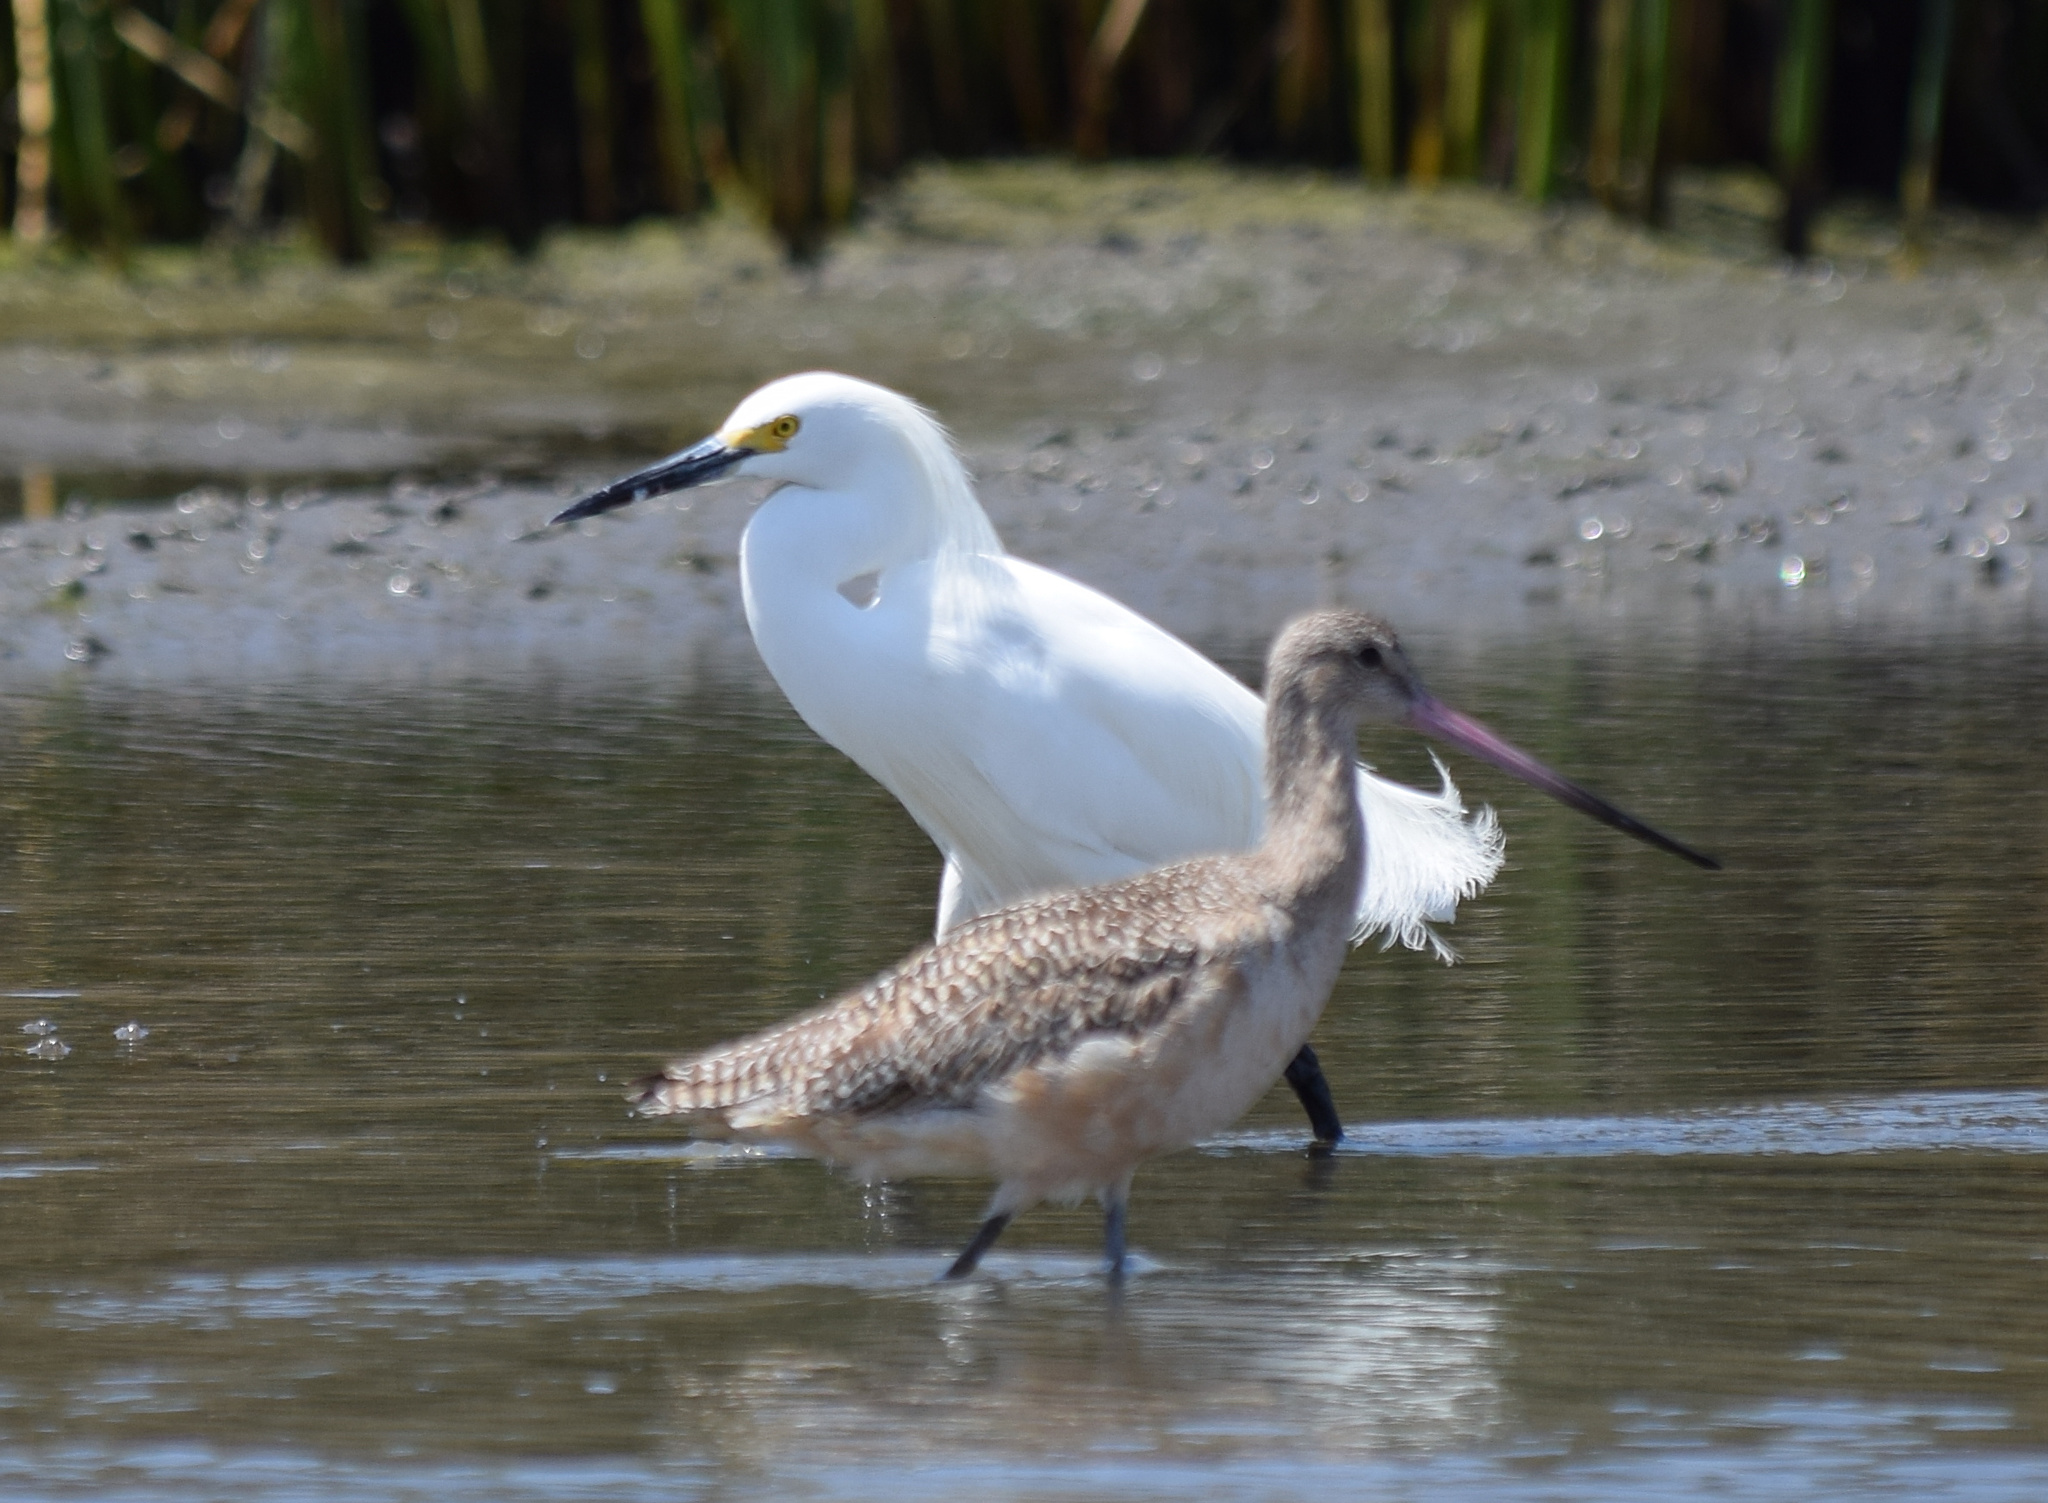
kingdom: Animalia
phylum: Chordata
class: Aves
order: Charadriiformes
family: Scolopacidae
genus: Limosa
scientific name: Limosa fedoa
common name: Marbled godwit
